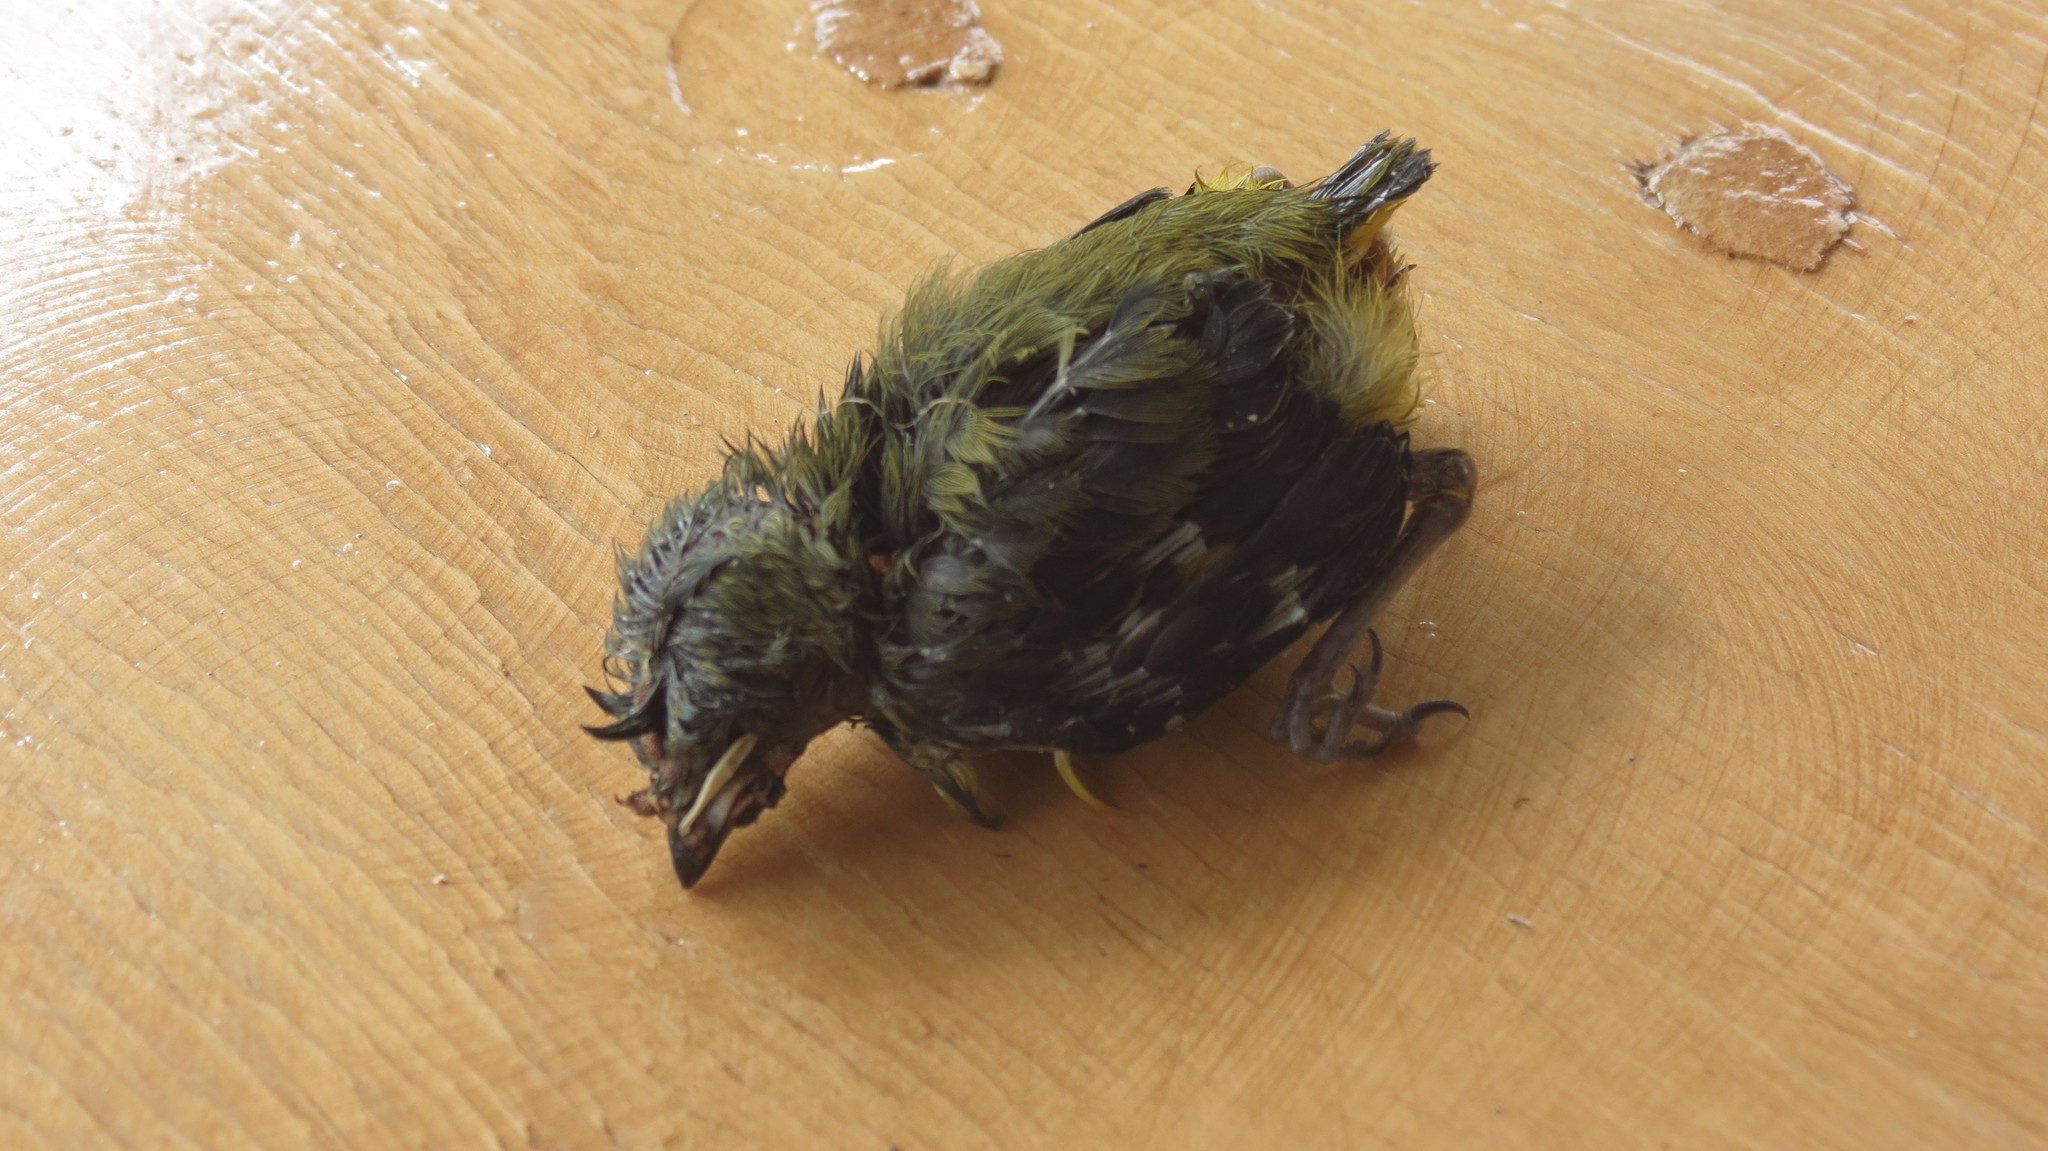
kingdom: Animalia
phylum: Chordata
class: Aves
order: Passeriformes
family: Fringillidae
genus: Spinus
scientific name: Spinus psaltria
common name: Lesser goldfinch
